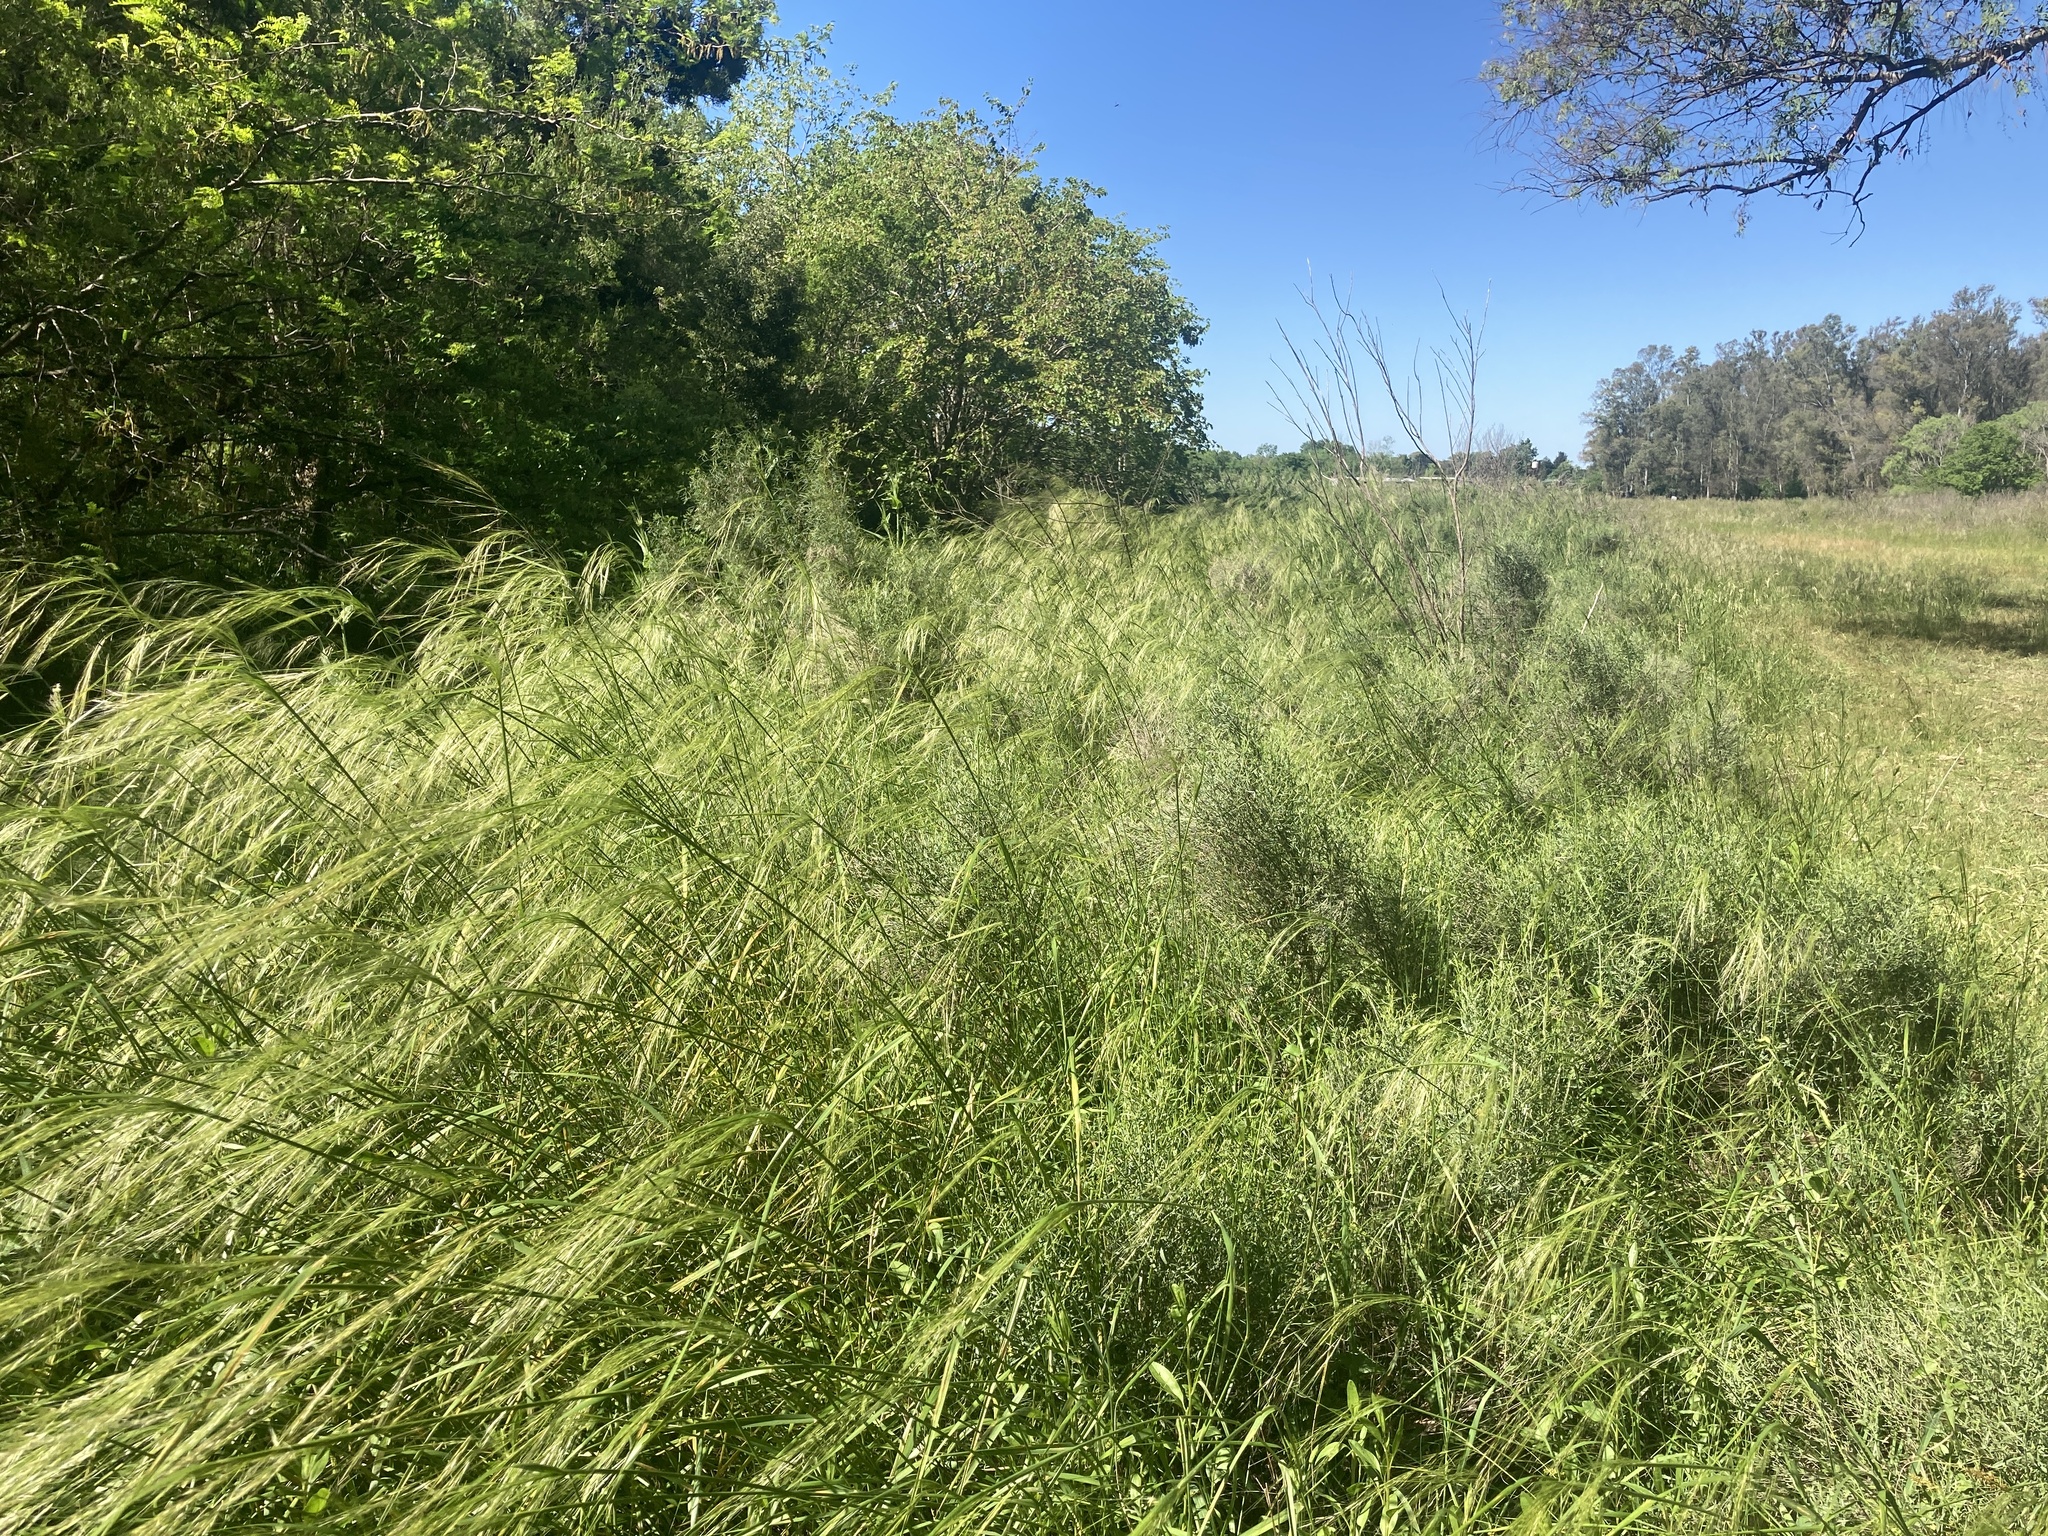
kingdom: Plantae
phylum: Tracheophyta
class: Liliopsida
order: Poales
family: Poaceae
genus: Nassella
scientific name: Nassella hyalina
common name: Spear grass
